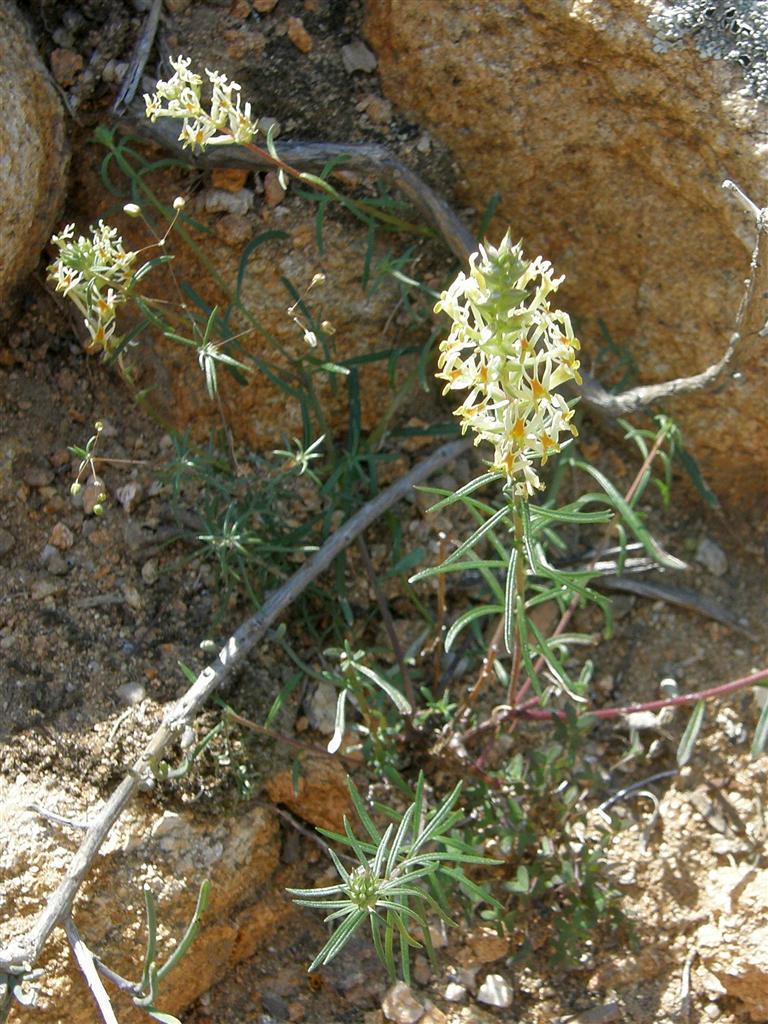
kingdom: Plantae
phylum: Tracheophyta
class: Magnoliopsida
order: Lamiales
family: Scrophulariaceae
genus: Hebenstretia
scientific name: Hebenstretia parviflora
